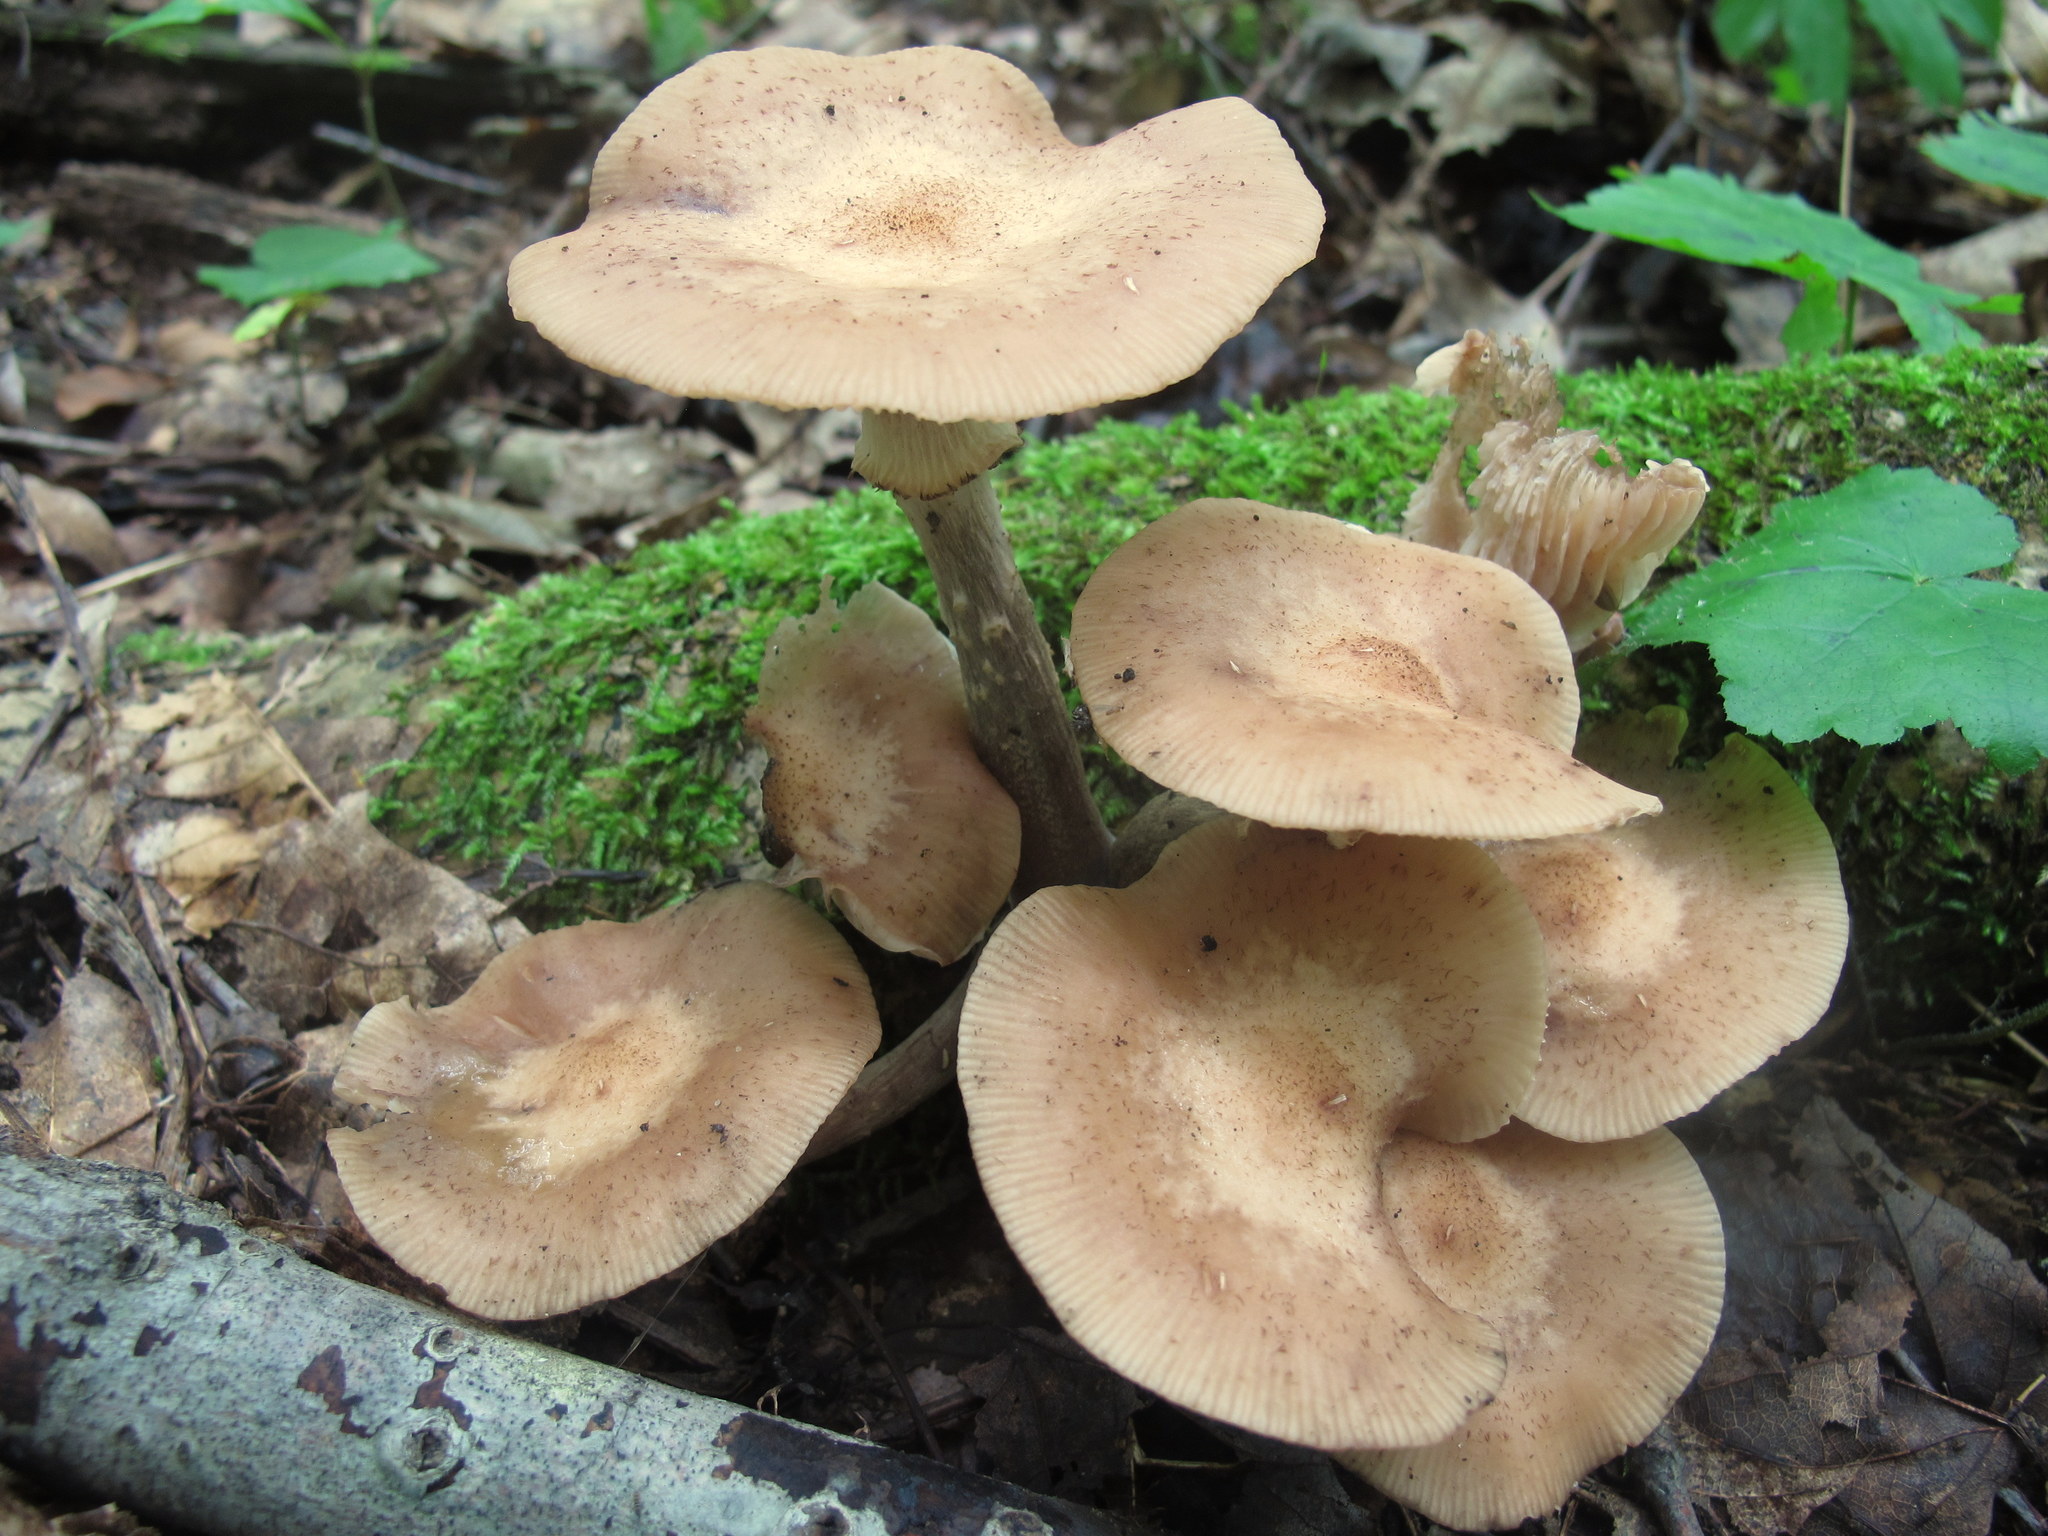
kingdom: Fungi
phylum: Basidiomycota
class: Agaricomycetes
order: Agaricales
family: Physalacriaceae
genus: Armillaria
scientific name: Armillaria gallica
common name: Bulbous honey fungus
